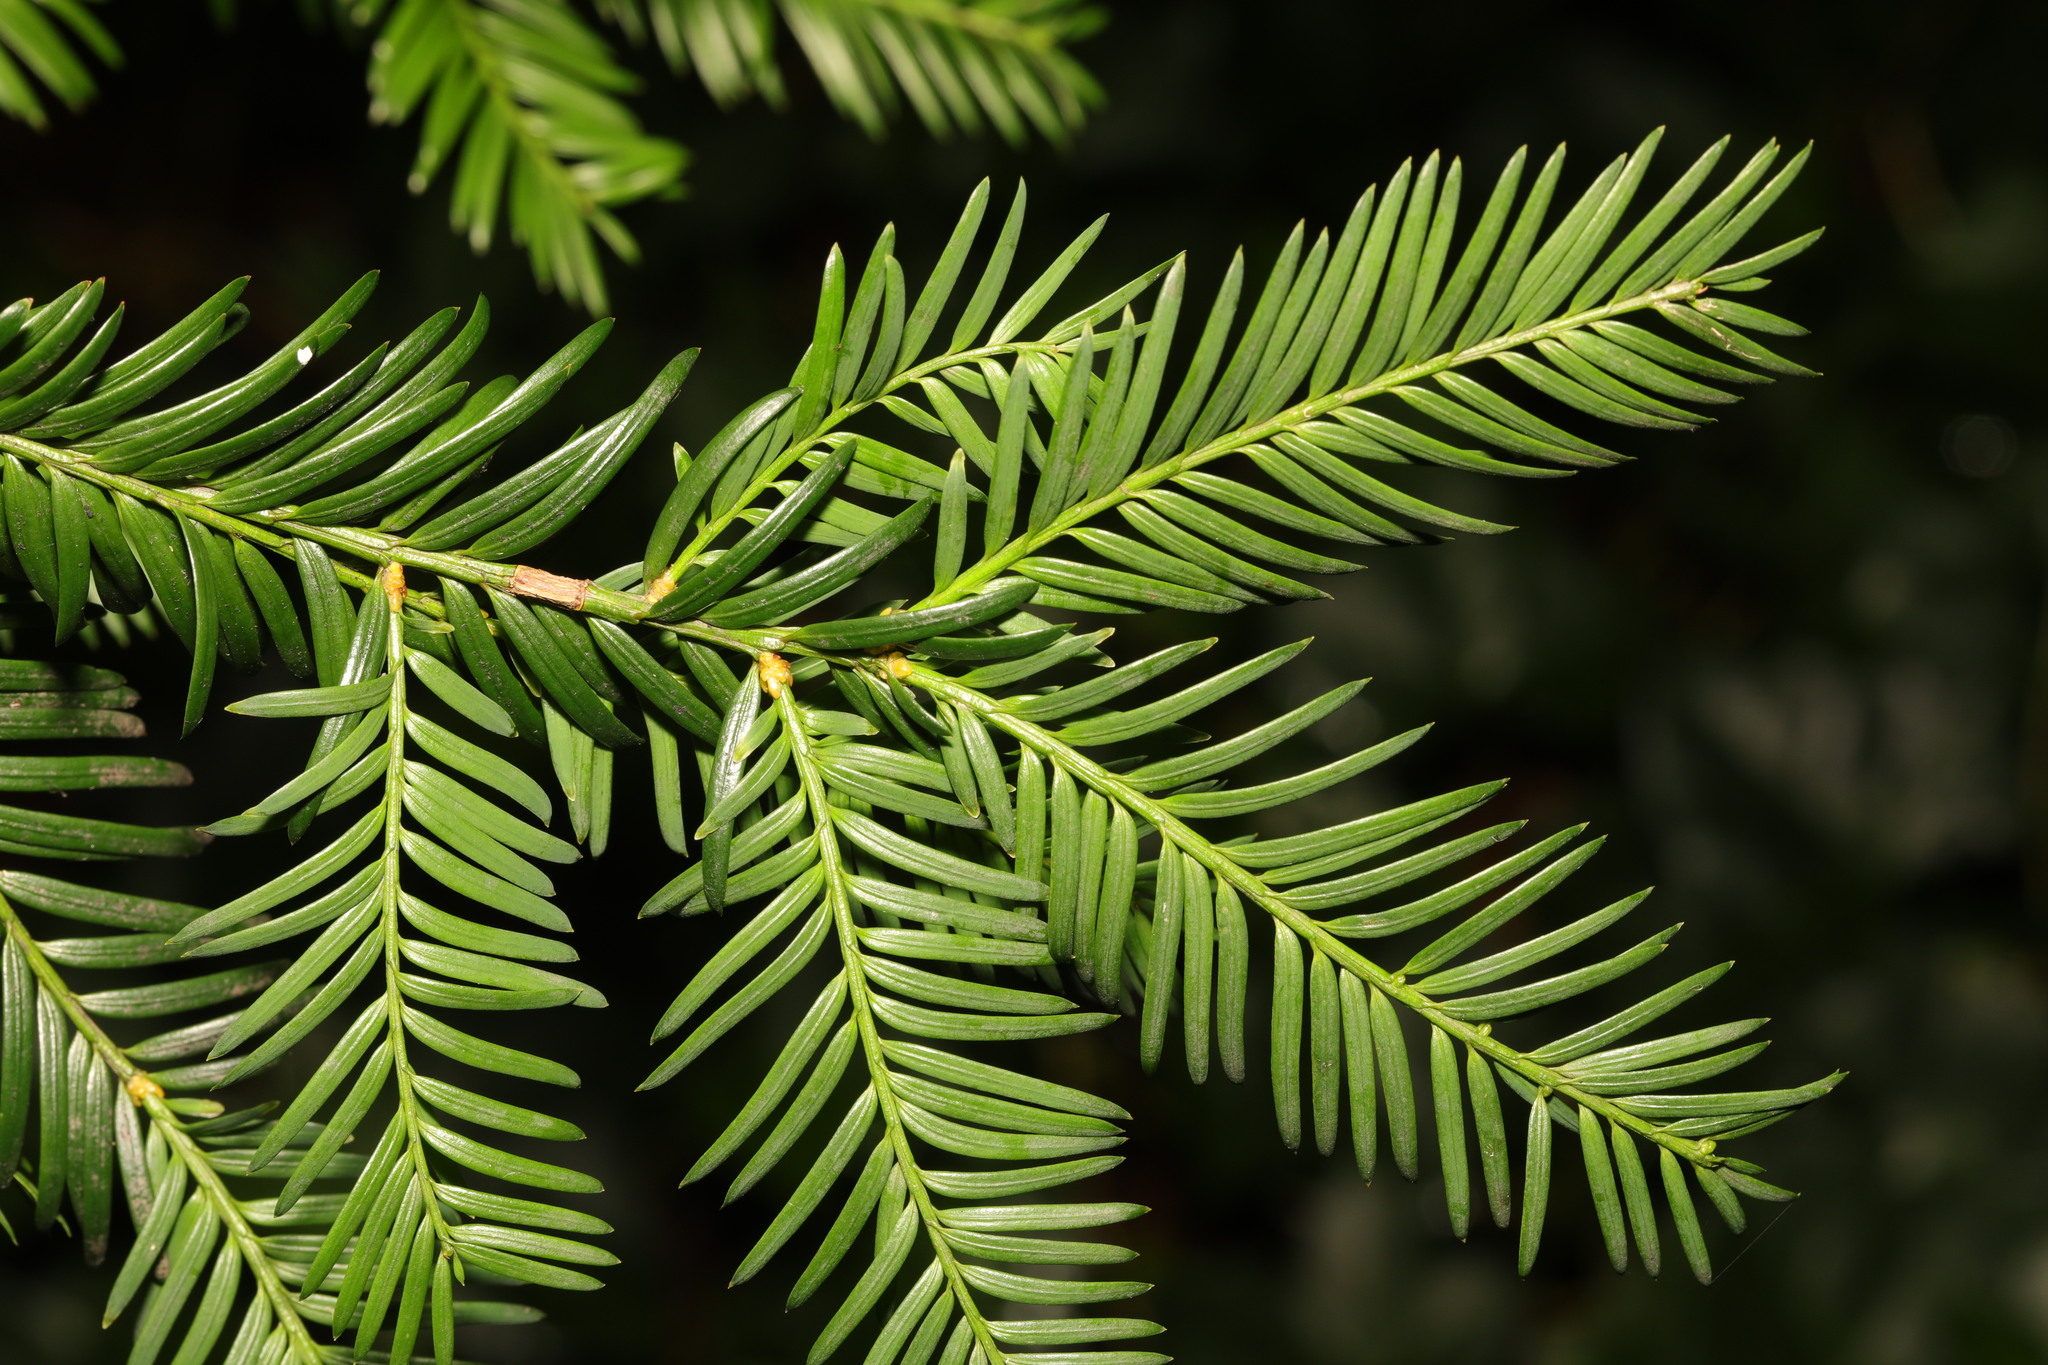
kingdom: Plantae
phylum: Tracheophyta
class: Pinopsida
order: Pinales
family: Taxaceae
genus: Taxus
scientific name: Taxus baccata
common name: Yew
